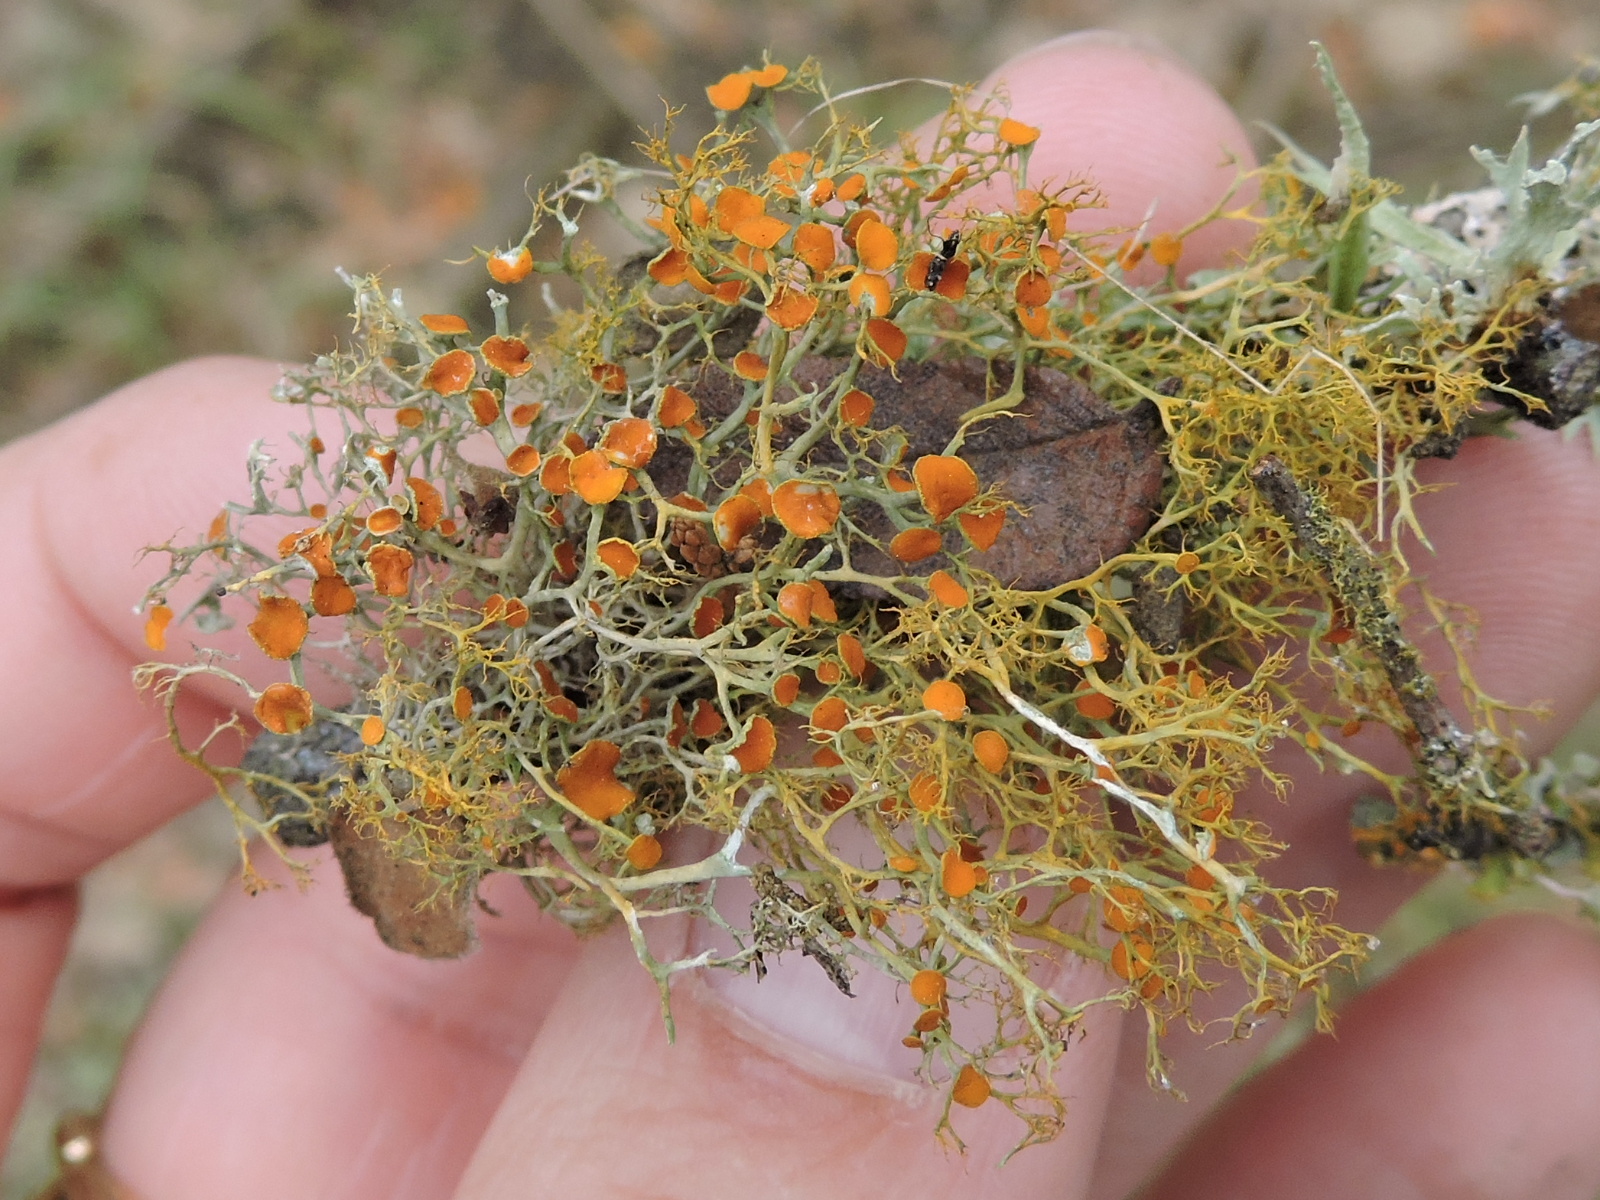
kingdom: Fungi
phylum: Ascomycota
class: Lecanoromycetes
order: Teloschistales
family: Teloschistaceae
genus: Teloschistes
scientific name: Teloschistes exilis
